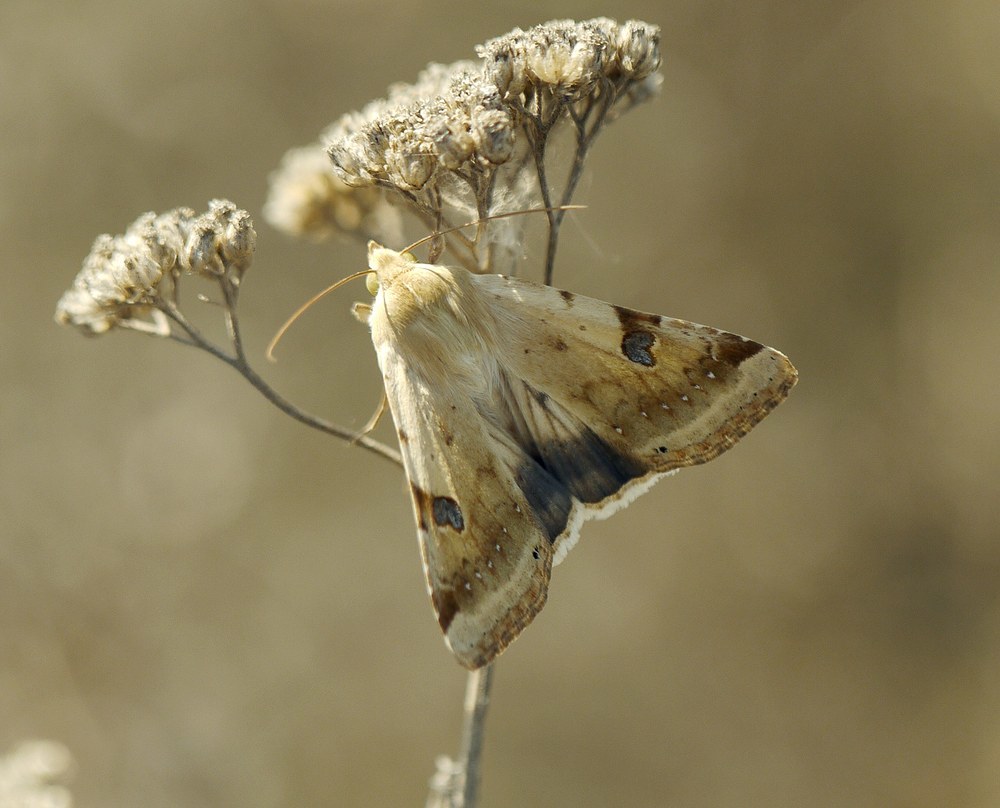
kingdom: Animalia
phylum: Arthropoda
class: Insecta
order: Lepidoptera
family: Noctuidae
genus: Heliothis
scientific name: Heliothis peltigera
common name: Bordered straw
